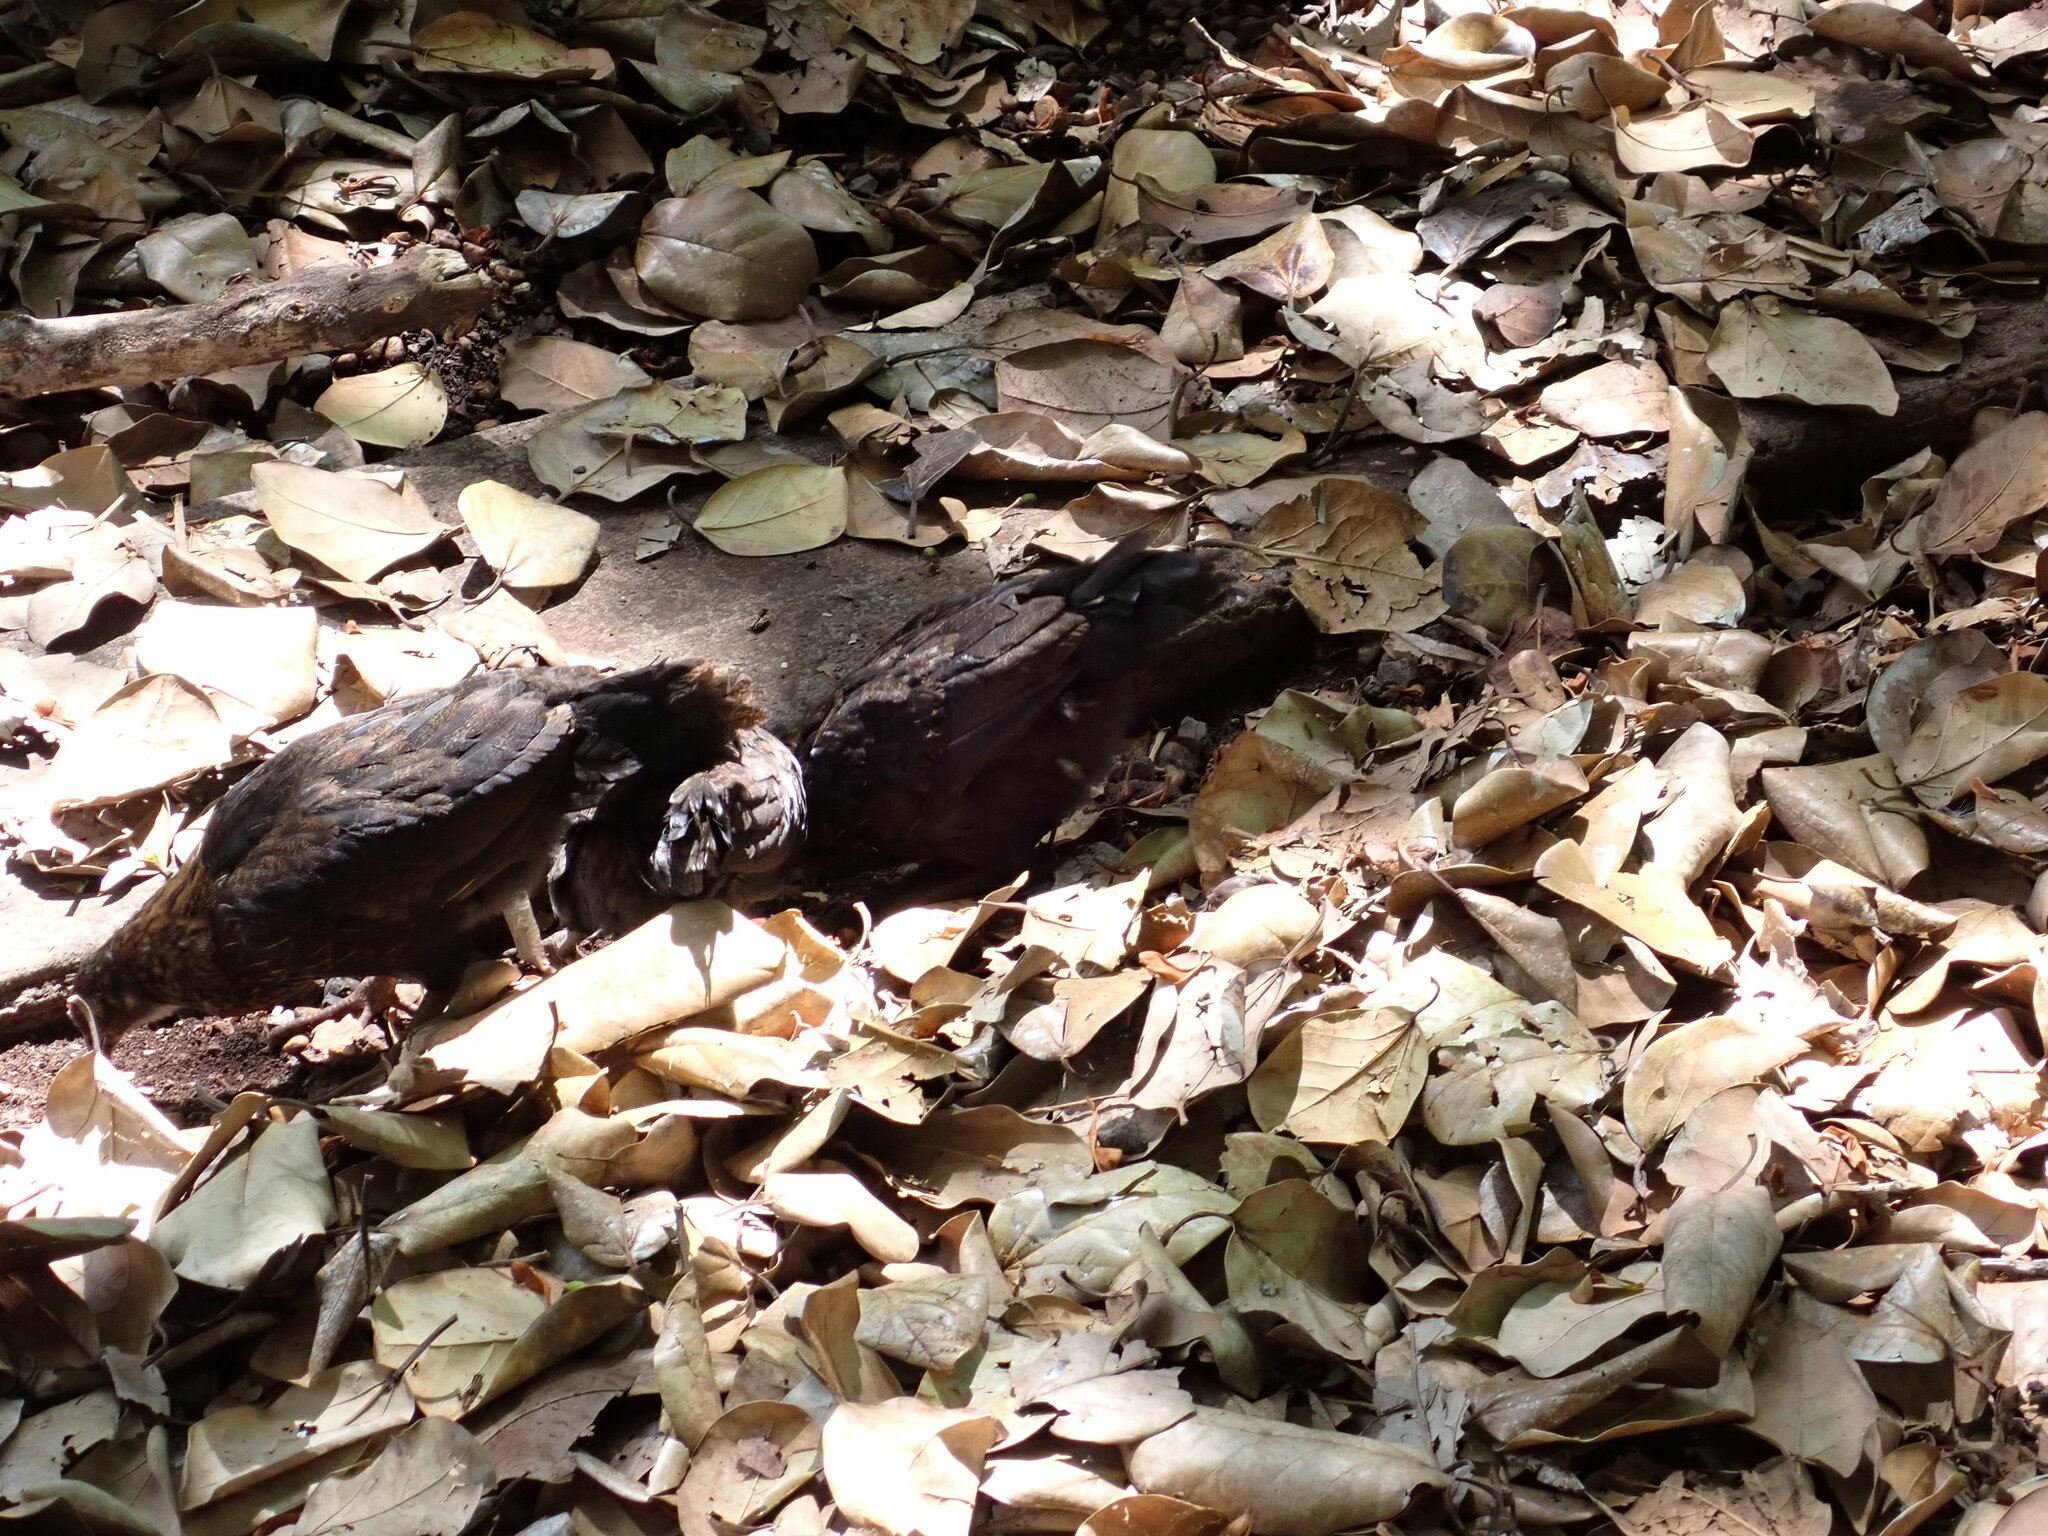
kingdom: Animalia
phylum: Chordata
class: Aves
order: Galliformes
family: Phasianidae
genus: Gallus
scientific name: Gallus gallus
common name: Red junglefowl
